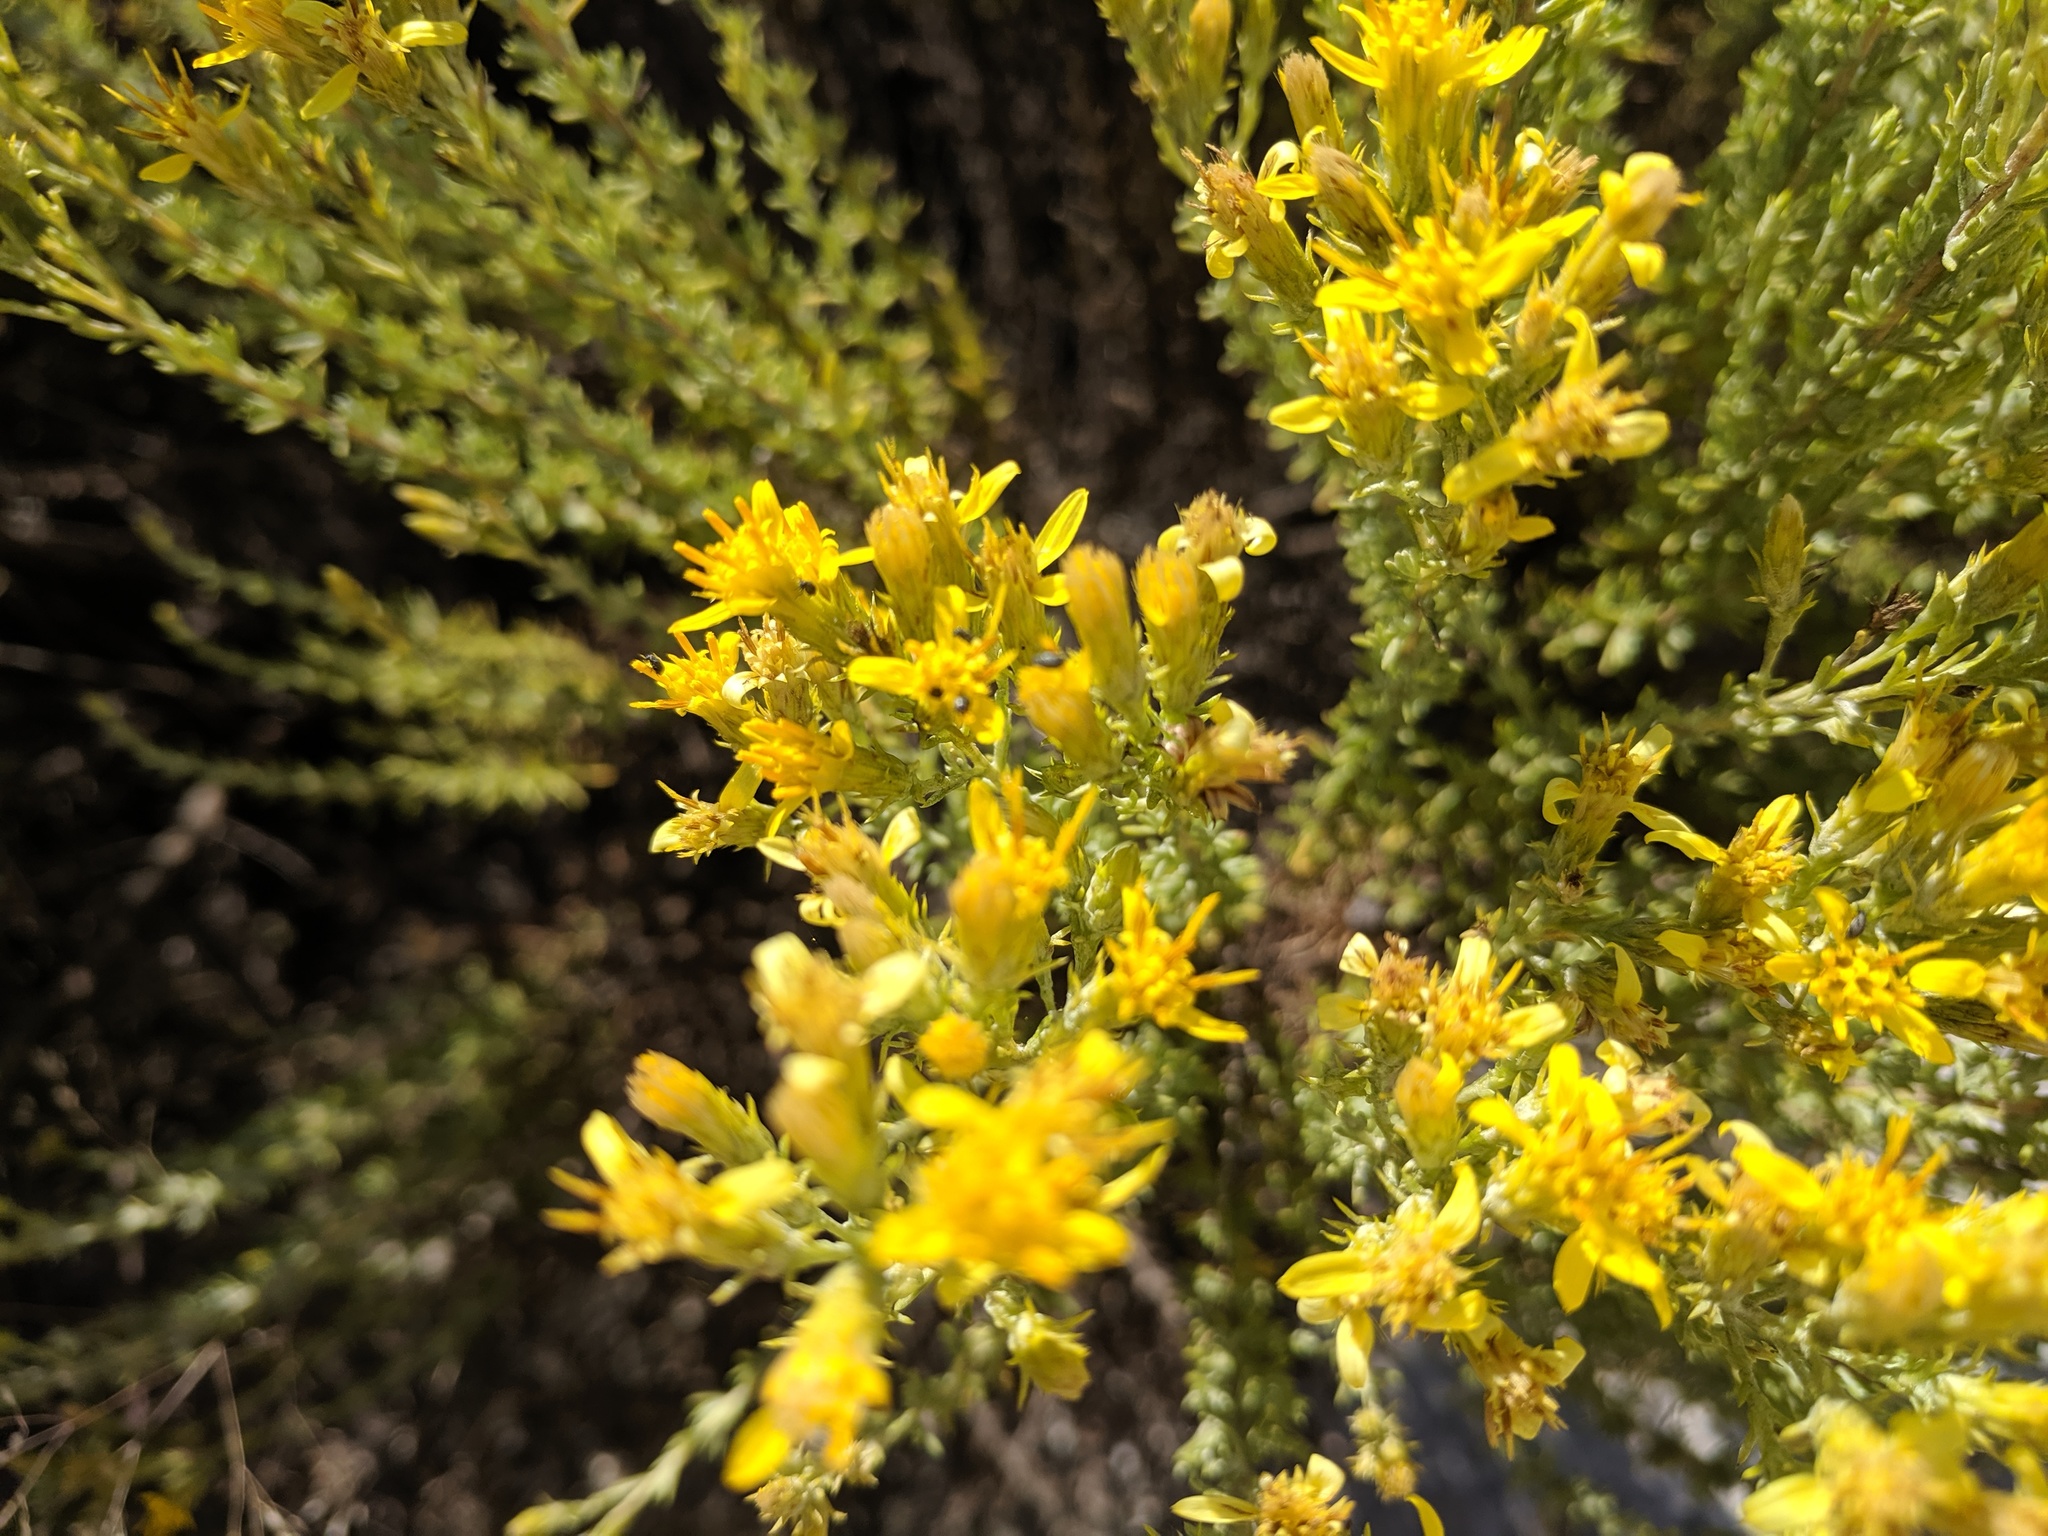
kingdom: Plantae
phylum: Tracheophyta
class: Magnoliopsida
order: Asterales
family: Asteraceae
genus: Ericameria
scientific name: Ericameria ericoides
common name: California goldenbush
